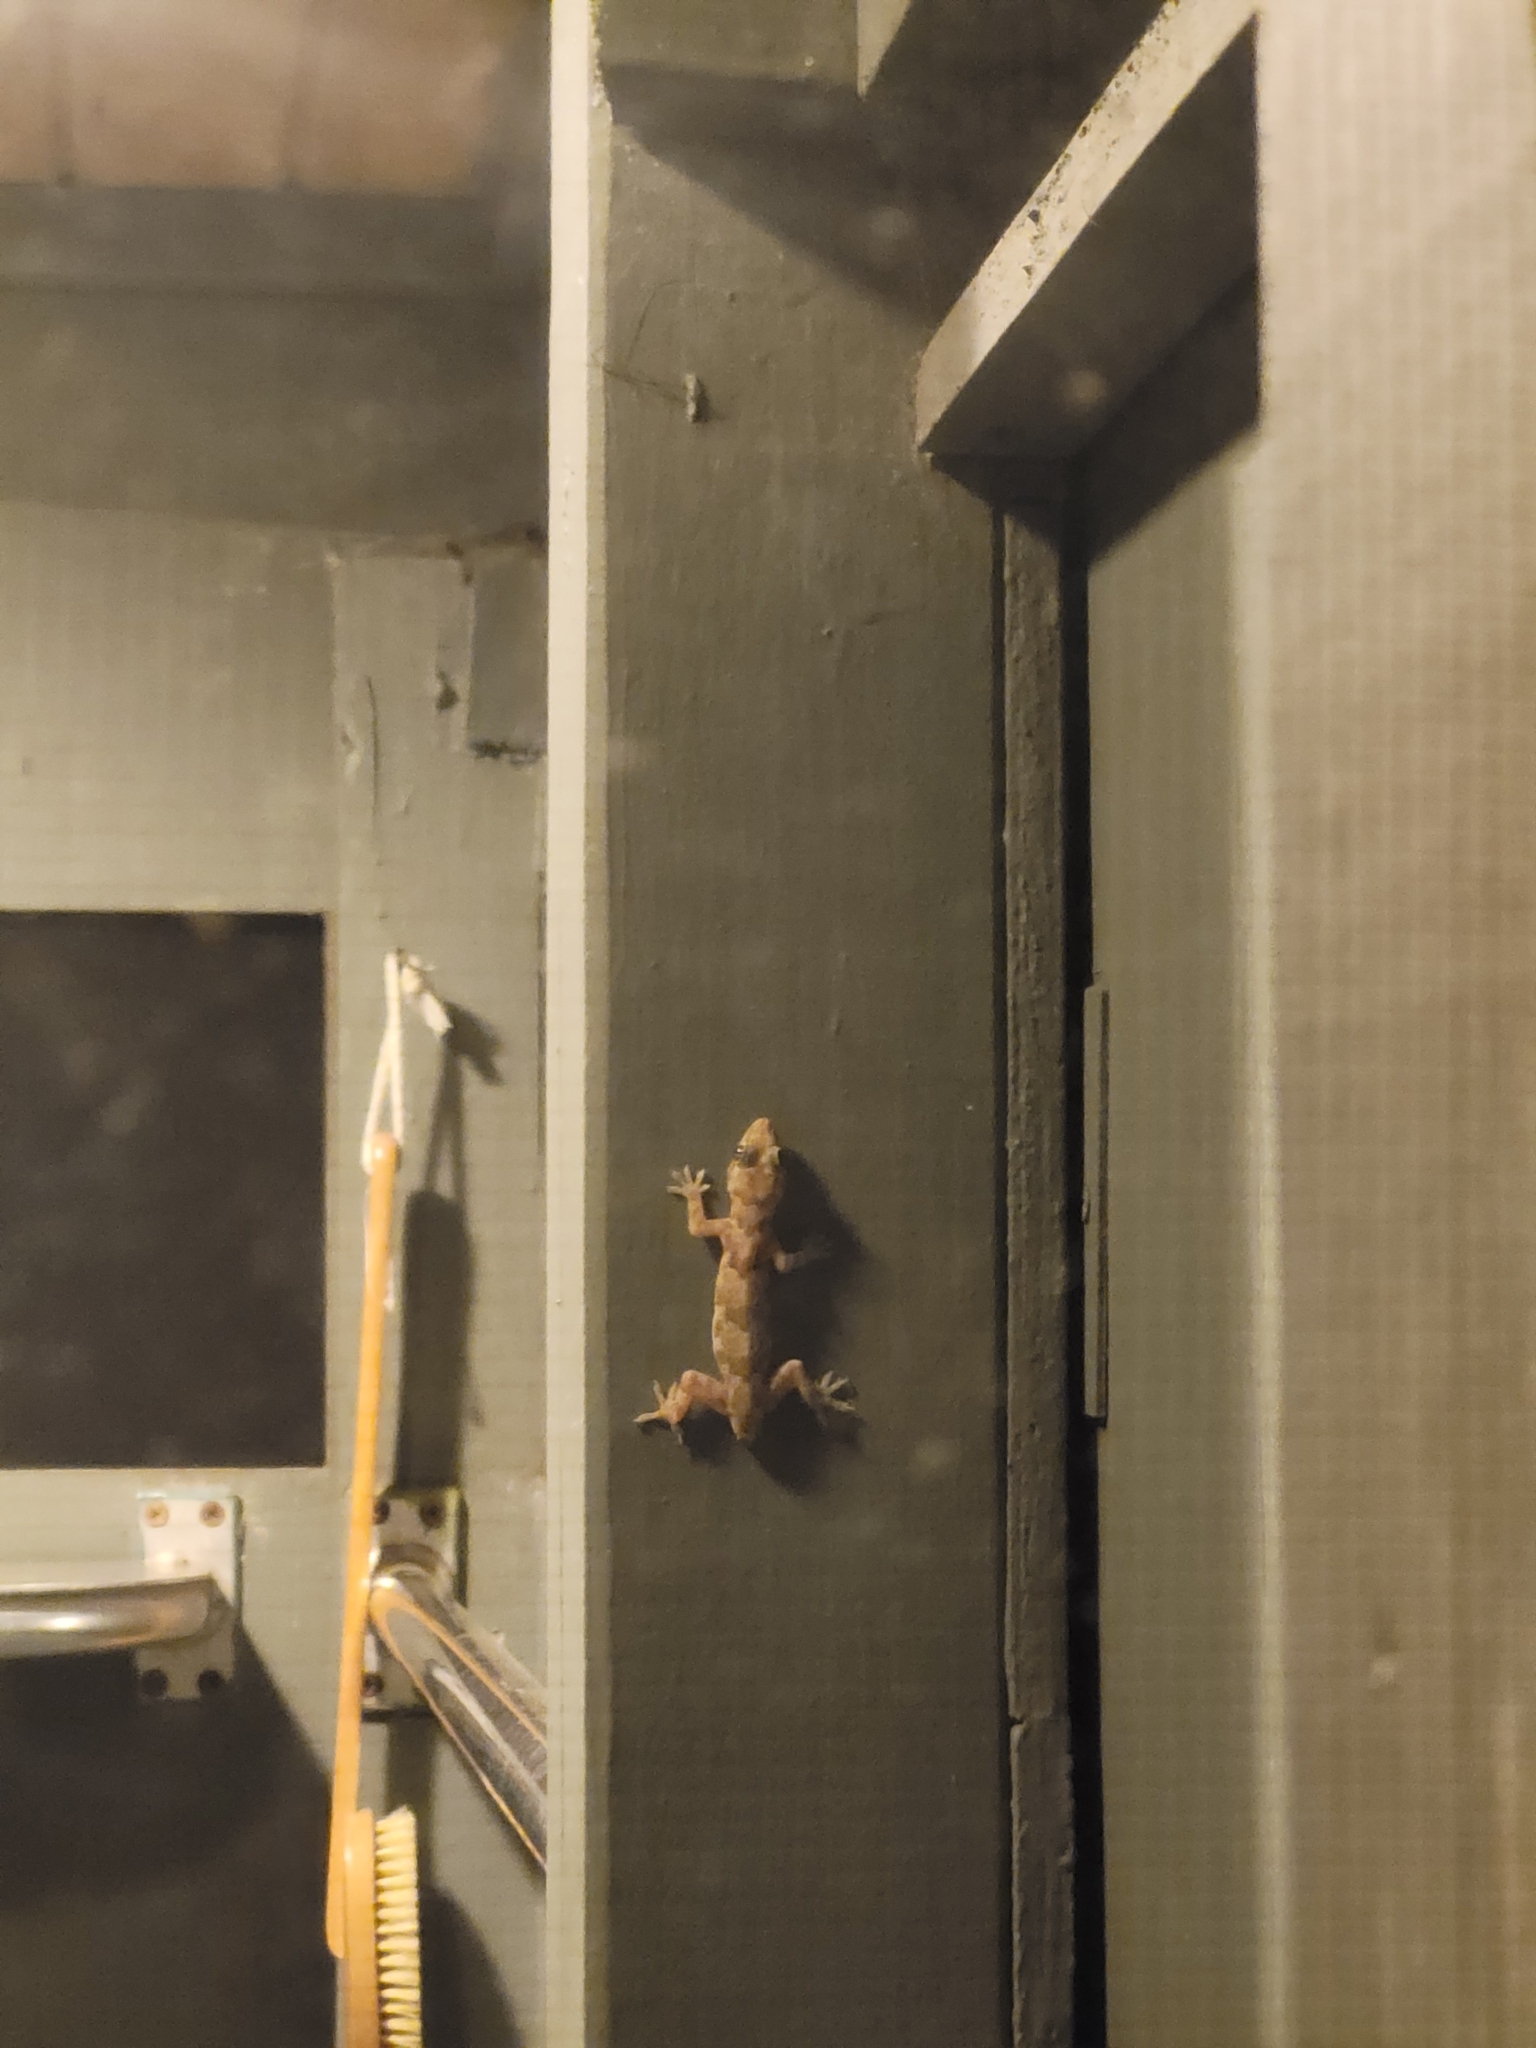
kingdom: Animalia
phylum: Chordata
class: Squamata
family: Gekkonidae
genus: Hemidactylus
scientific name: Hemidactylus mabouia
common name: House gecko
